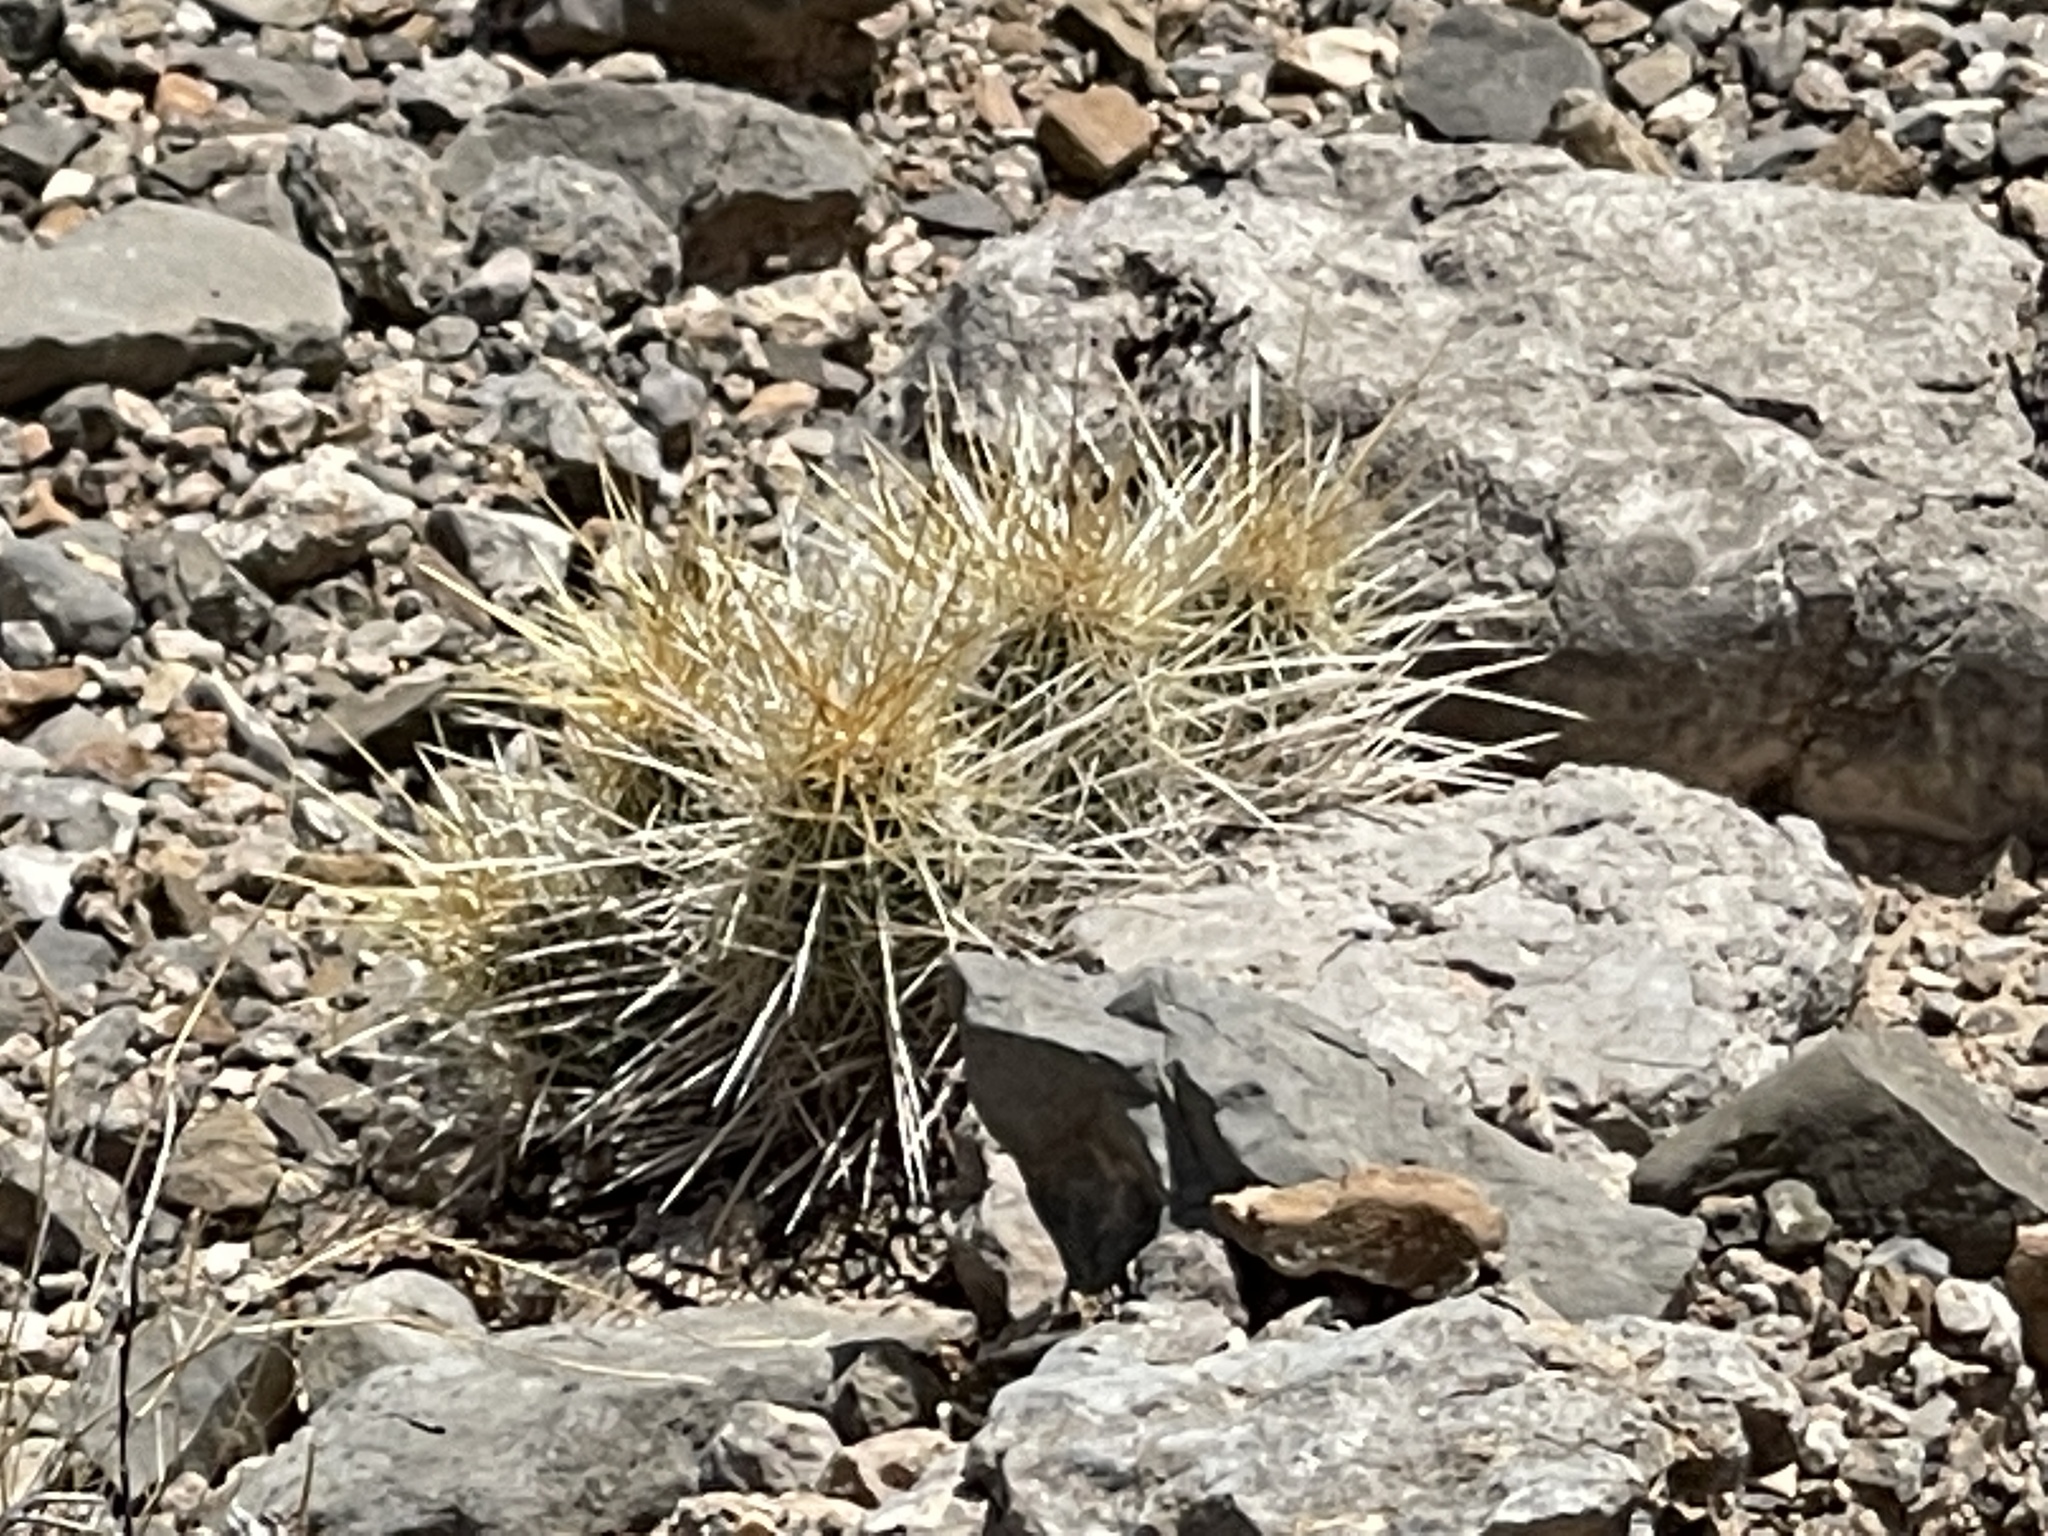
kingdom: Plantae
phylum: Tracheophyta
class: Magnoliopsida
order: Caryophyllales
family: Cactaceae
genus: Echinocereus
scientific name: Echinocereus stramineus
